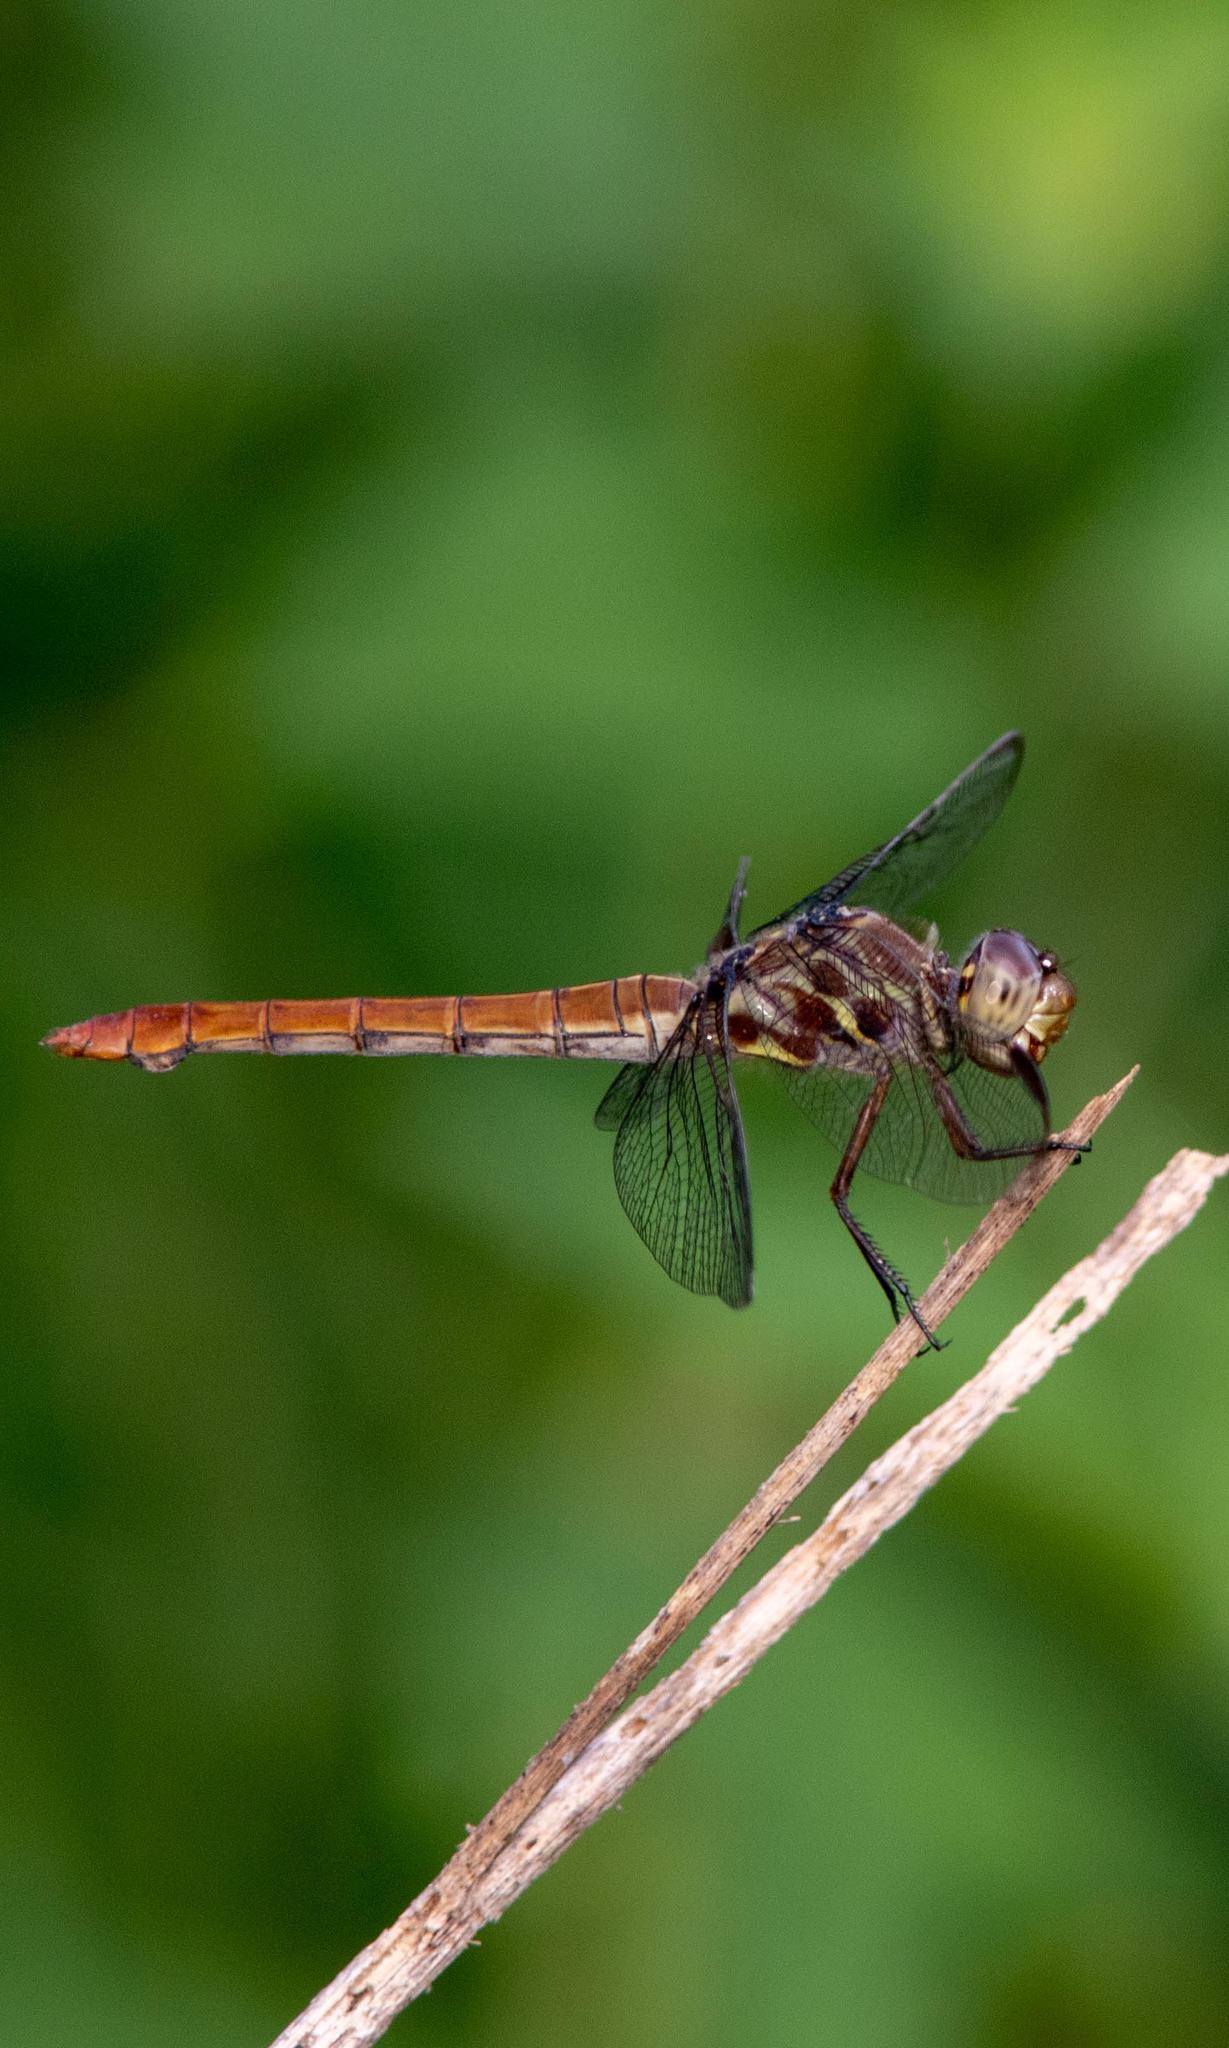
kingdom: Animalia
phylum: Arthropoda
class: Insecta
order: Odonata
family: Libellulidae
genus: Orthemis
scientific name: Orthemis ferruginea
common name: Roseate skimmer
